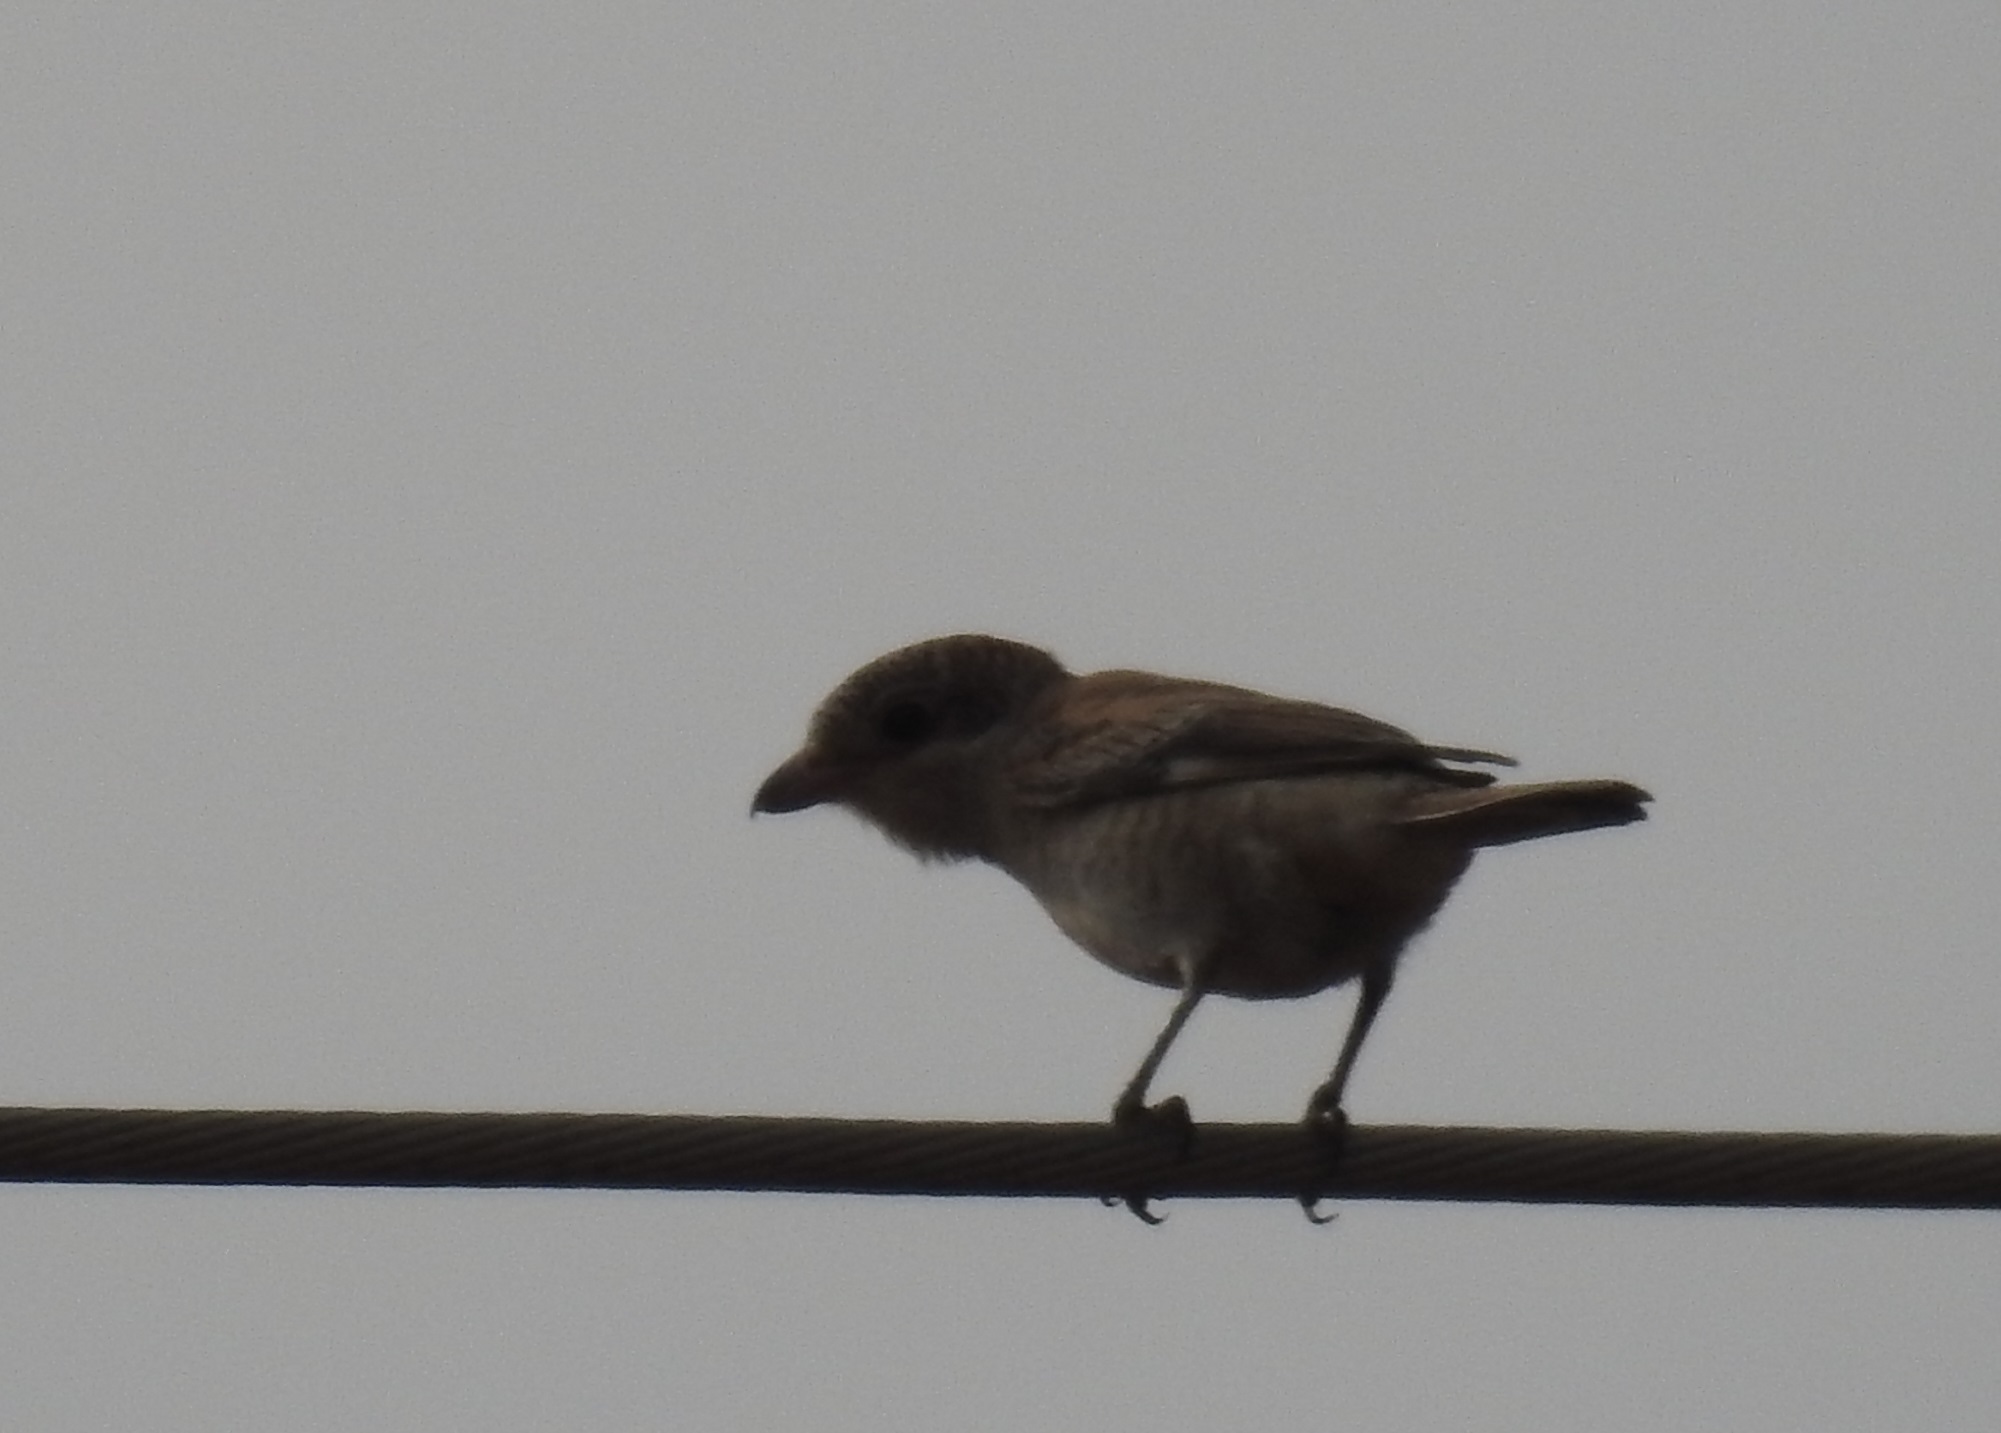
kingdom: Animalia
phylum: Chordata
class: Aves
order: Passeriformes
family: Laniidae
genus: Lanius
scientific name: Lanius senator
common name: Woodchat shrike
